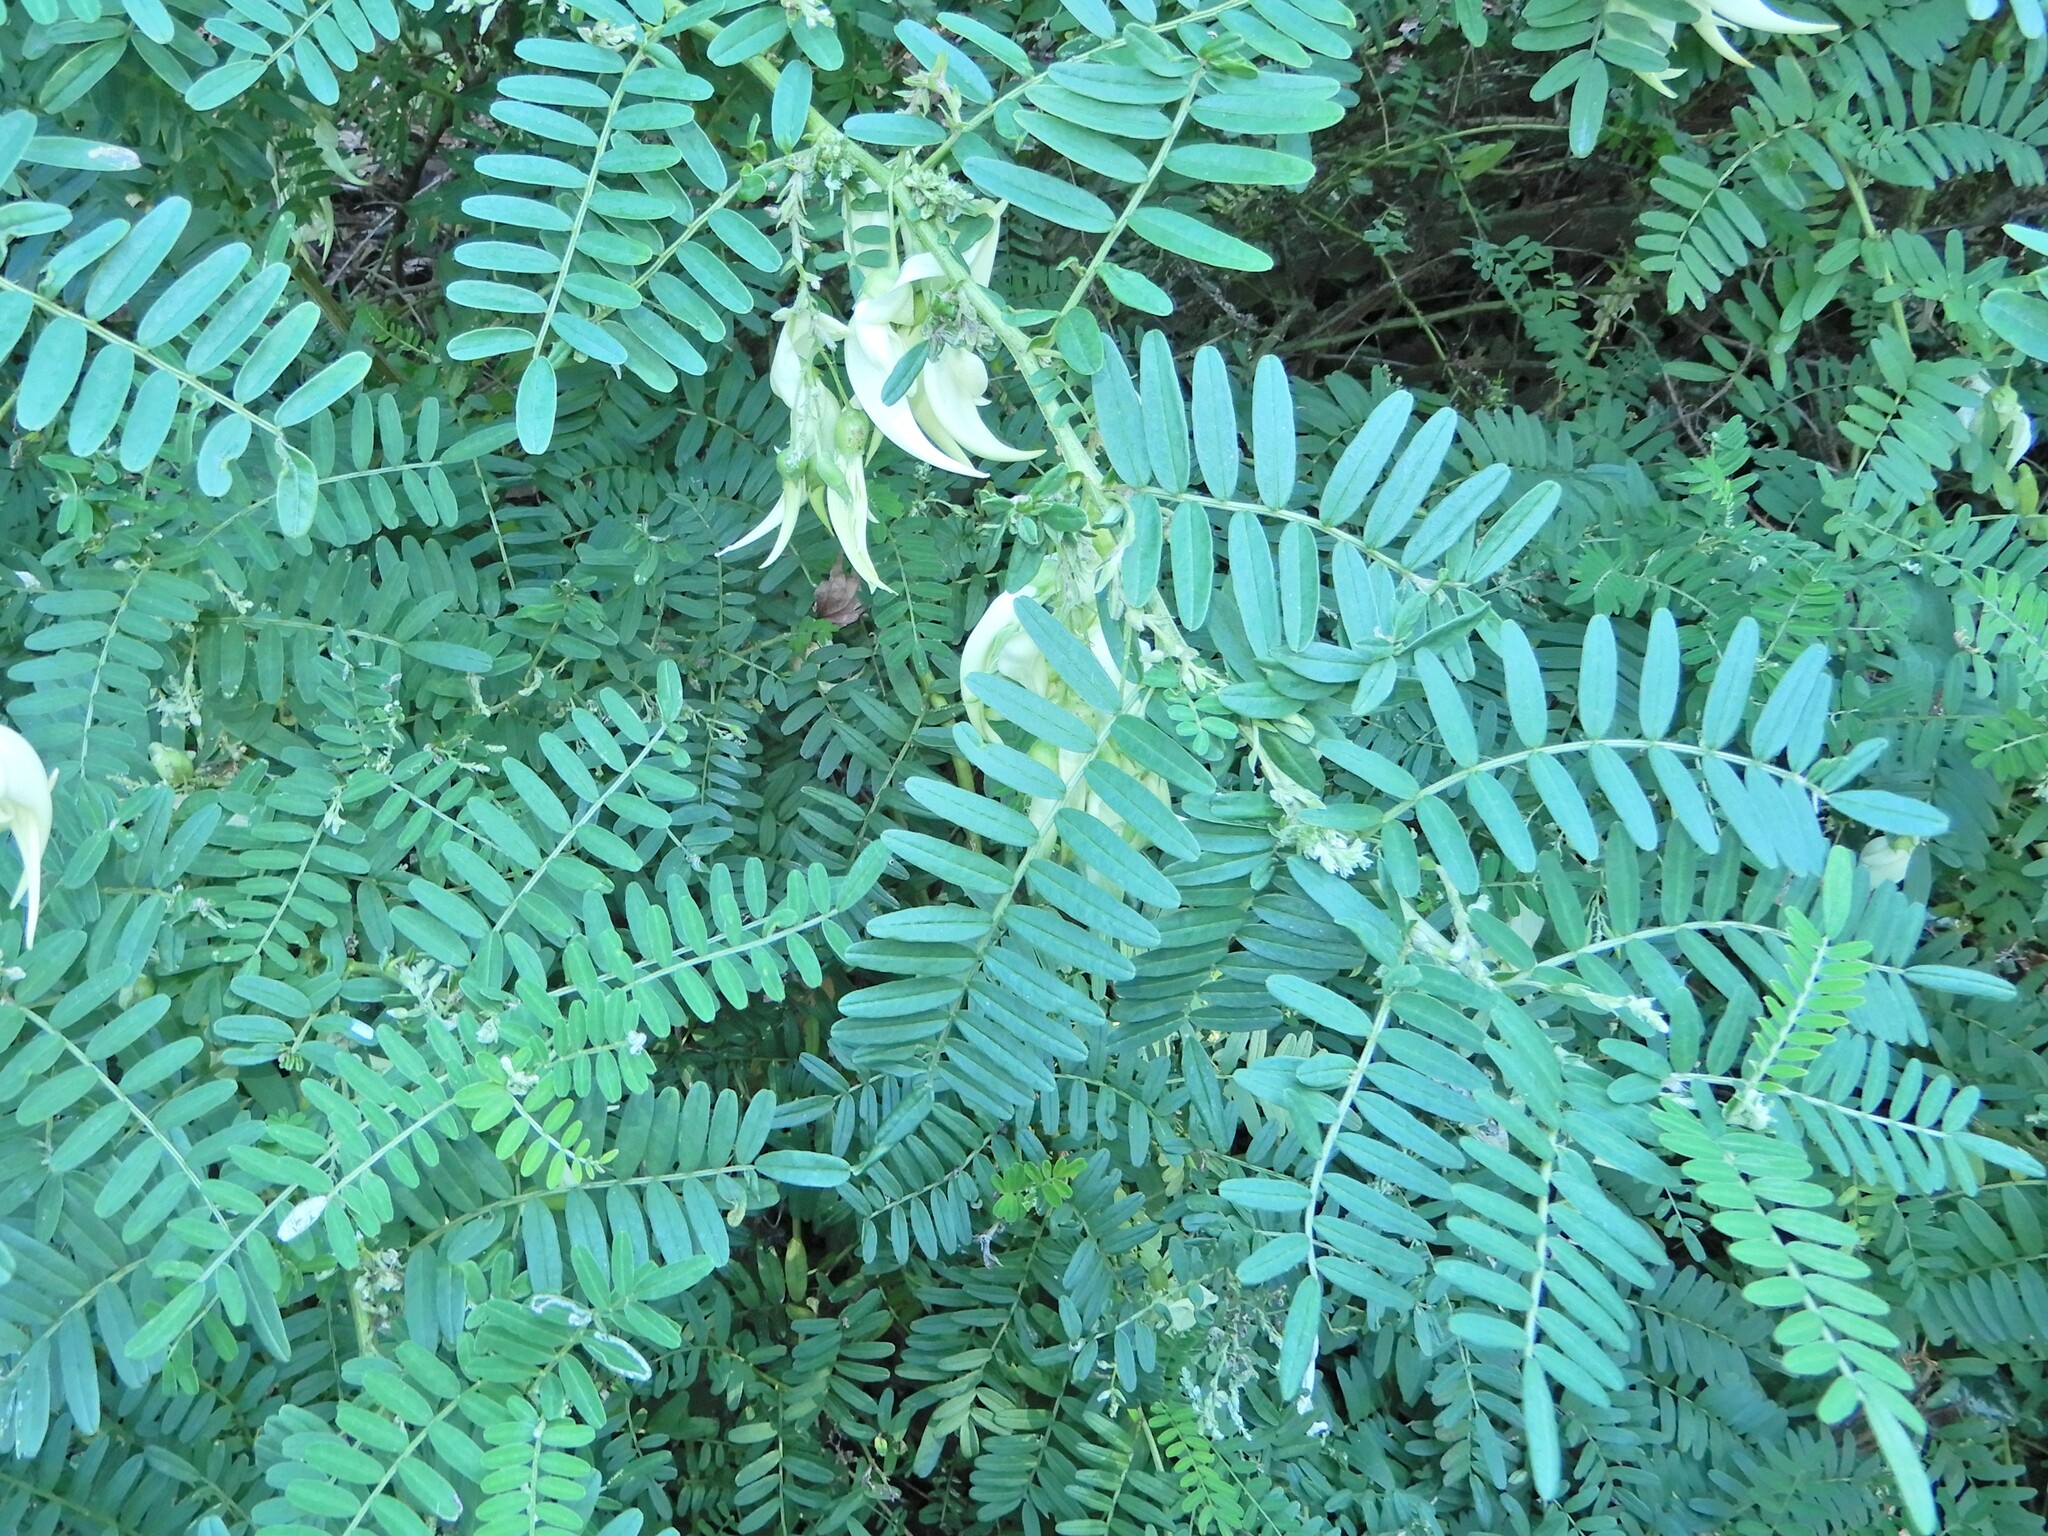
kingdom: Plantae
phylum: Tracheophyta
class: Magnoliopsida
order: Fabales
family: Fabaceae
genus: Clianthus
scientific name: Clianthus puniceus
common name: Kaka-beak
